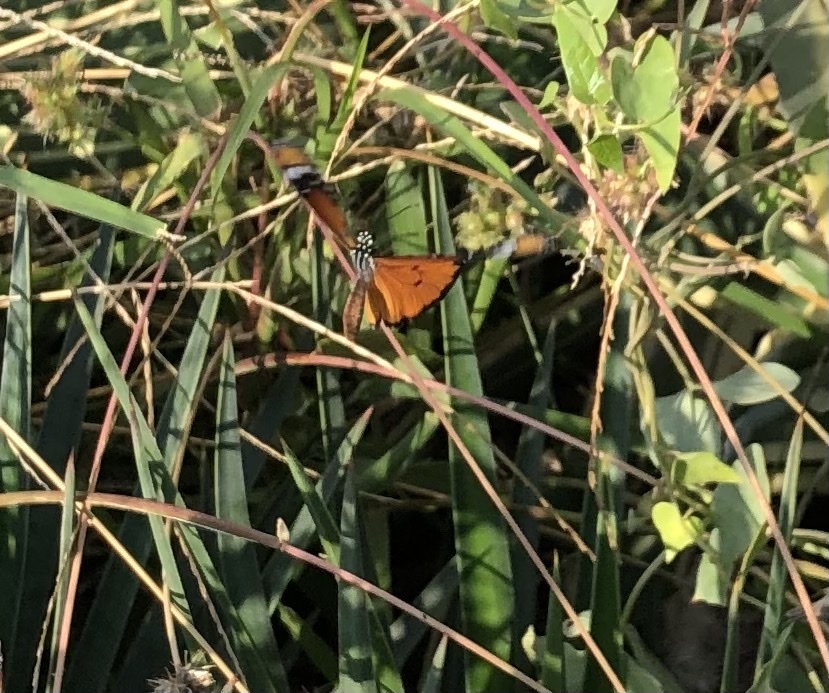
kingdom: Animalia
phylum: Arthropoda
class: Insecta
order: Lepidoptera
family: Nymphalidae
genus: Danaus
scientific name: Danaus chrysippus
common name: Plain tiger
